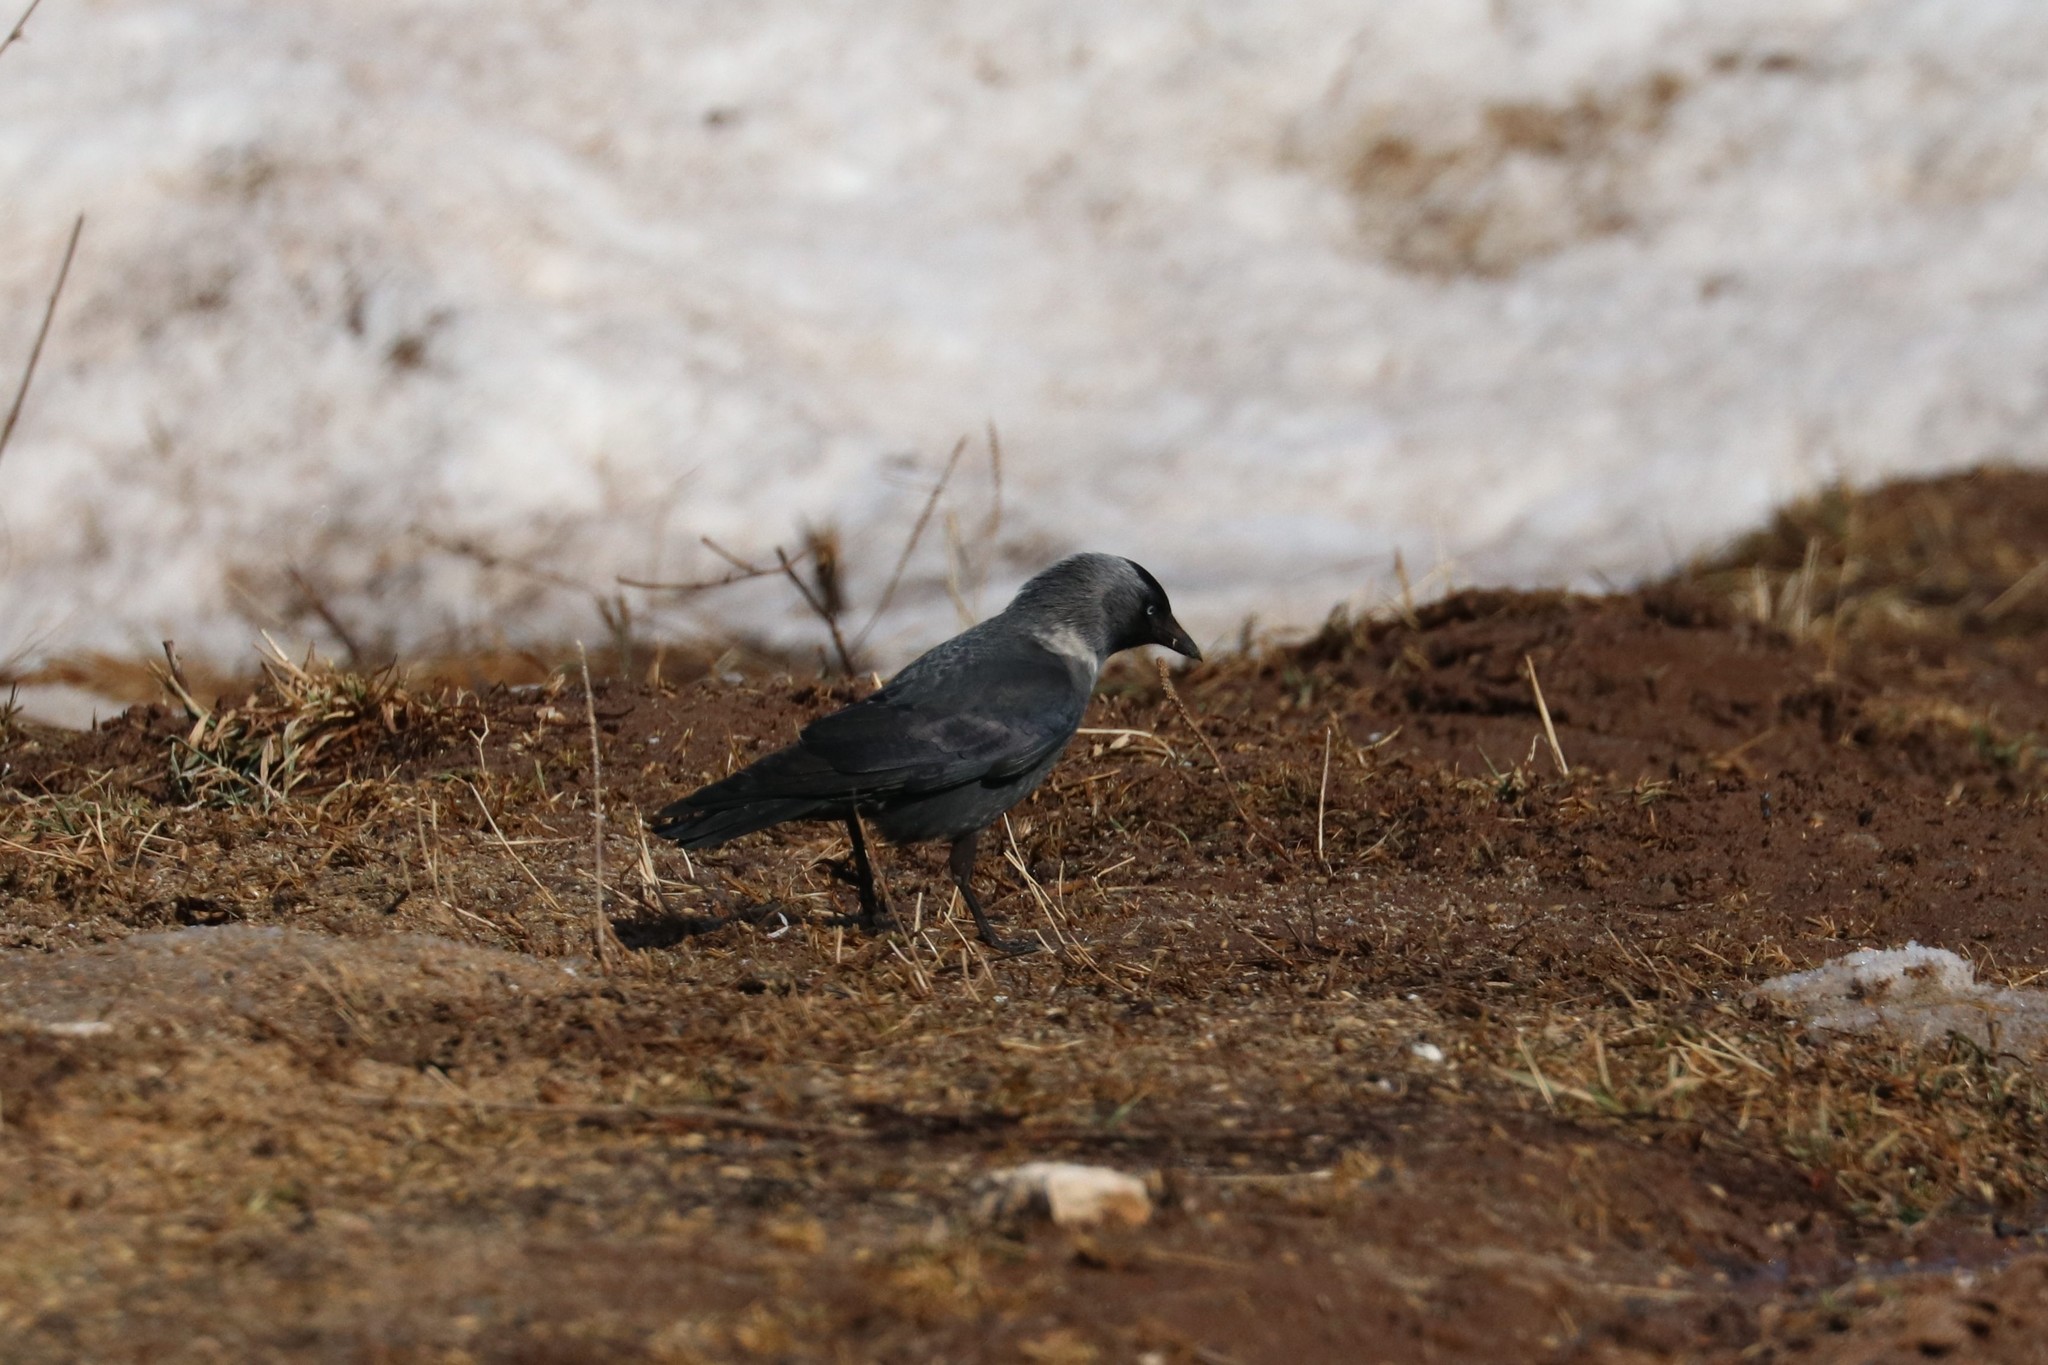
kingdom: Animalia
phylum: Chordata
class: Aves
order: Passeriformes
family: Corvidae
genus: Coloeus
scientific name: Coloeus monedula
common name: Western jackdaw
